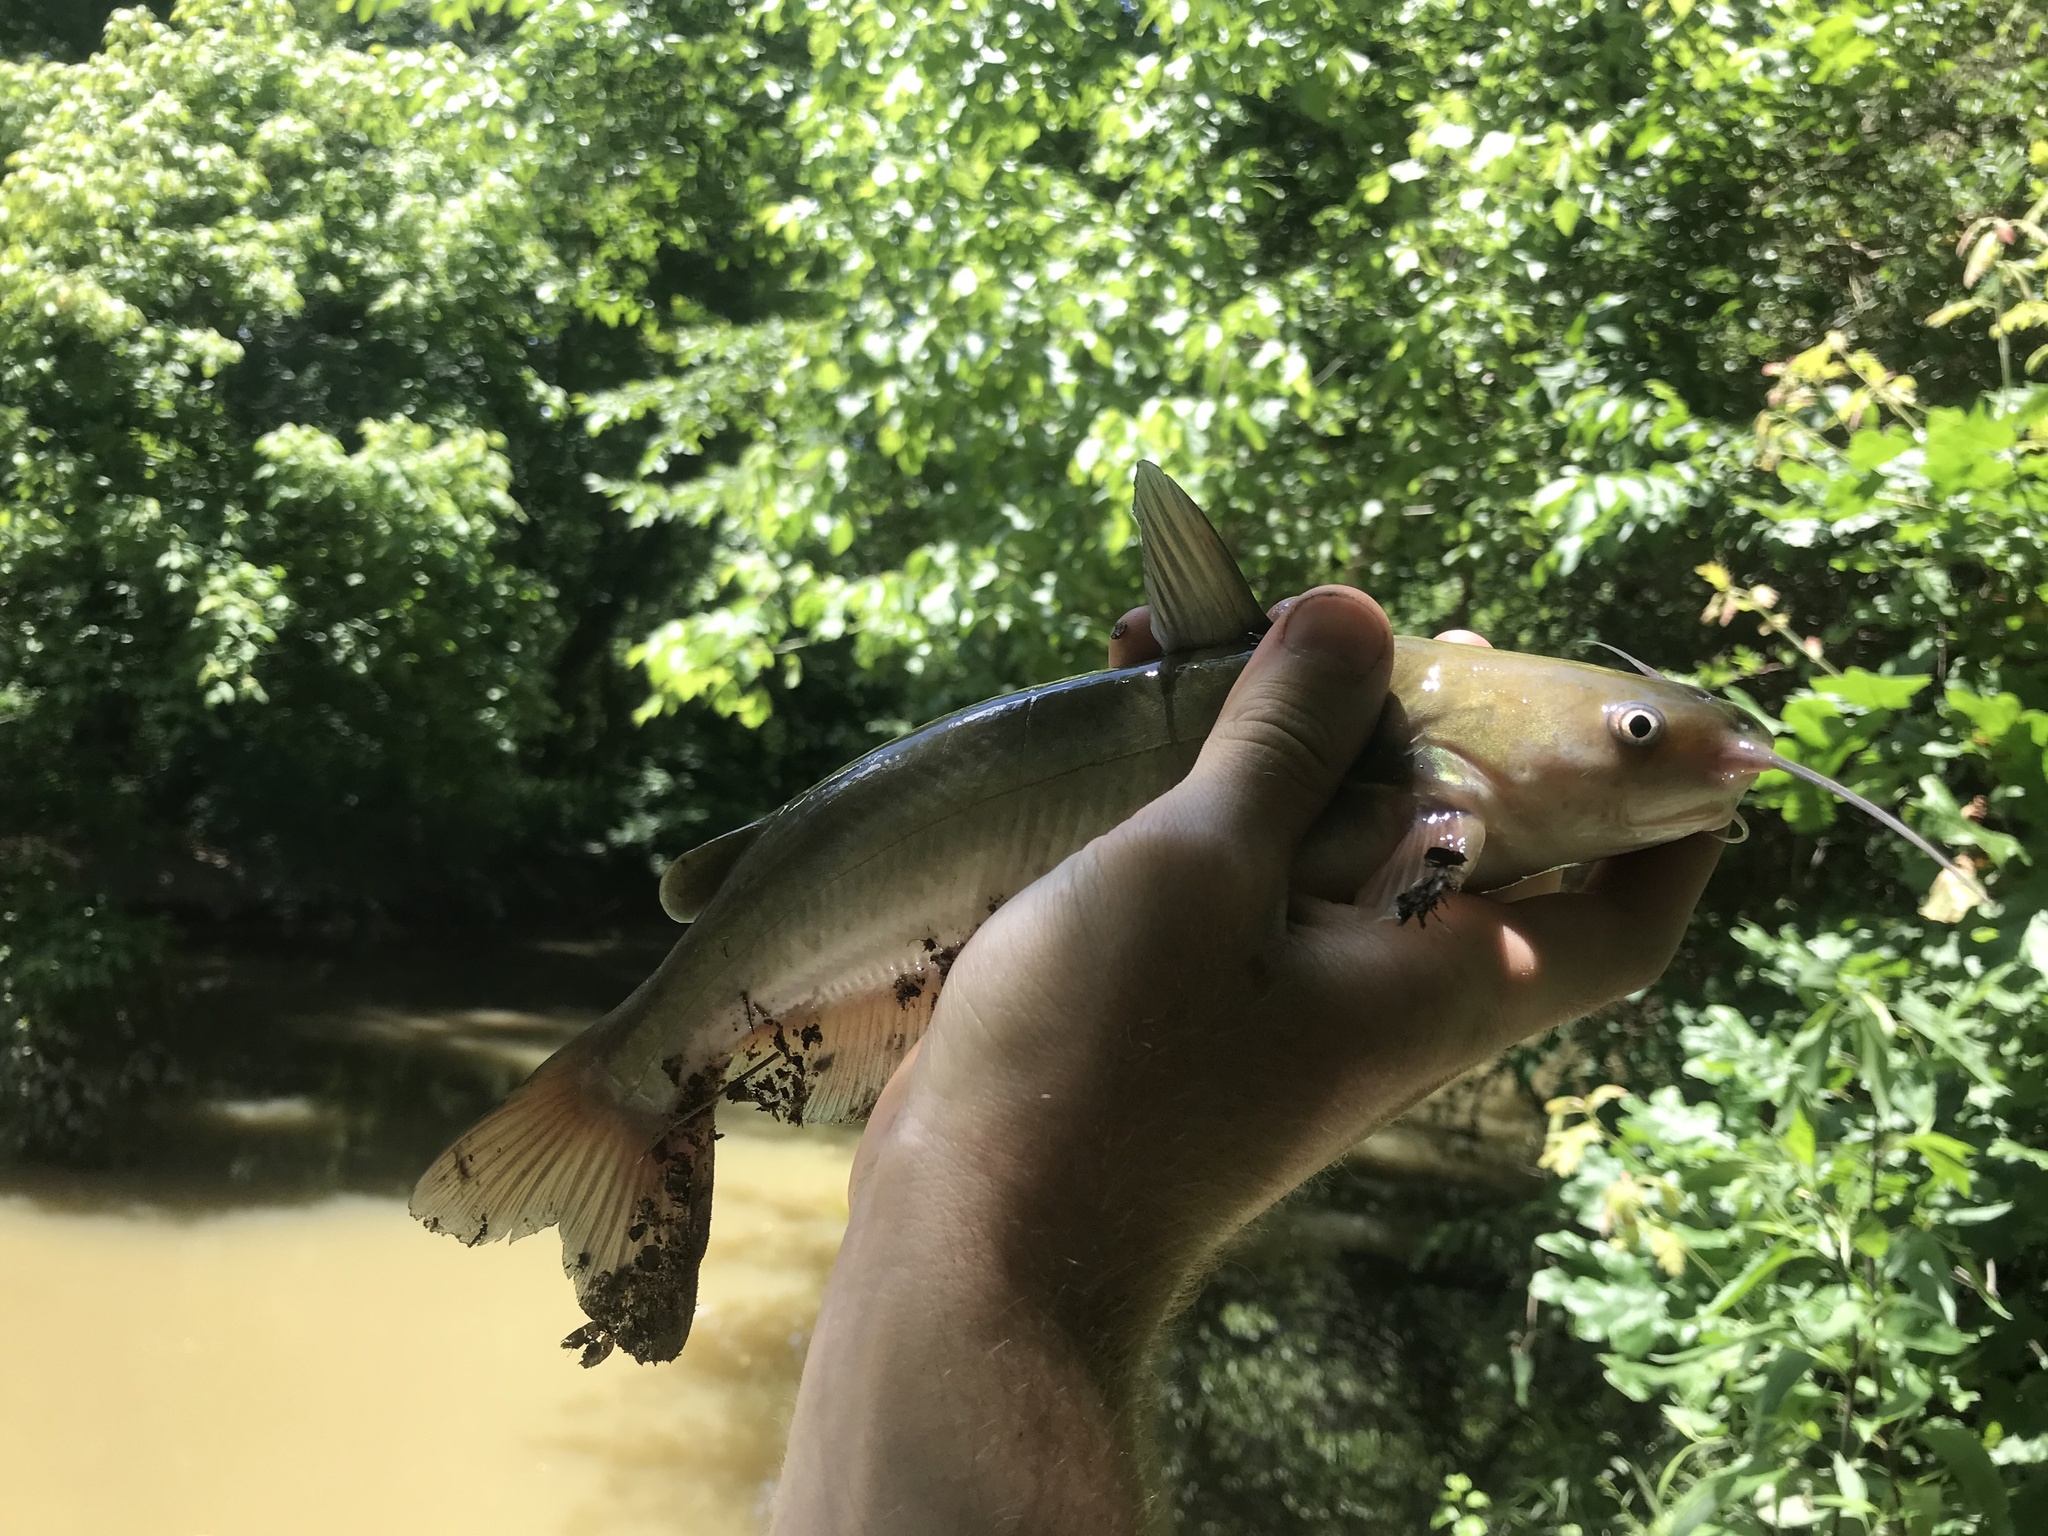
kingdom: Animalia
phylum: Chordata
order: Siluriformes
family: Ictaluridae
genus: Ameiurus
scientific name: Ameiurus catus
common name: White catfish
